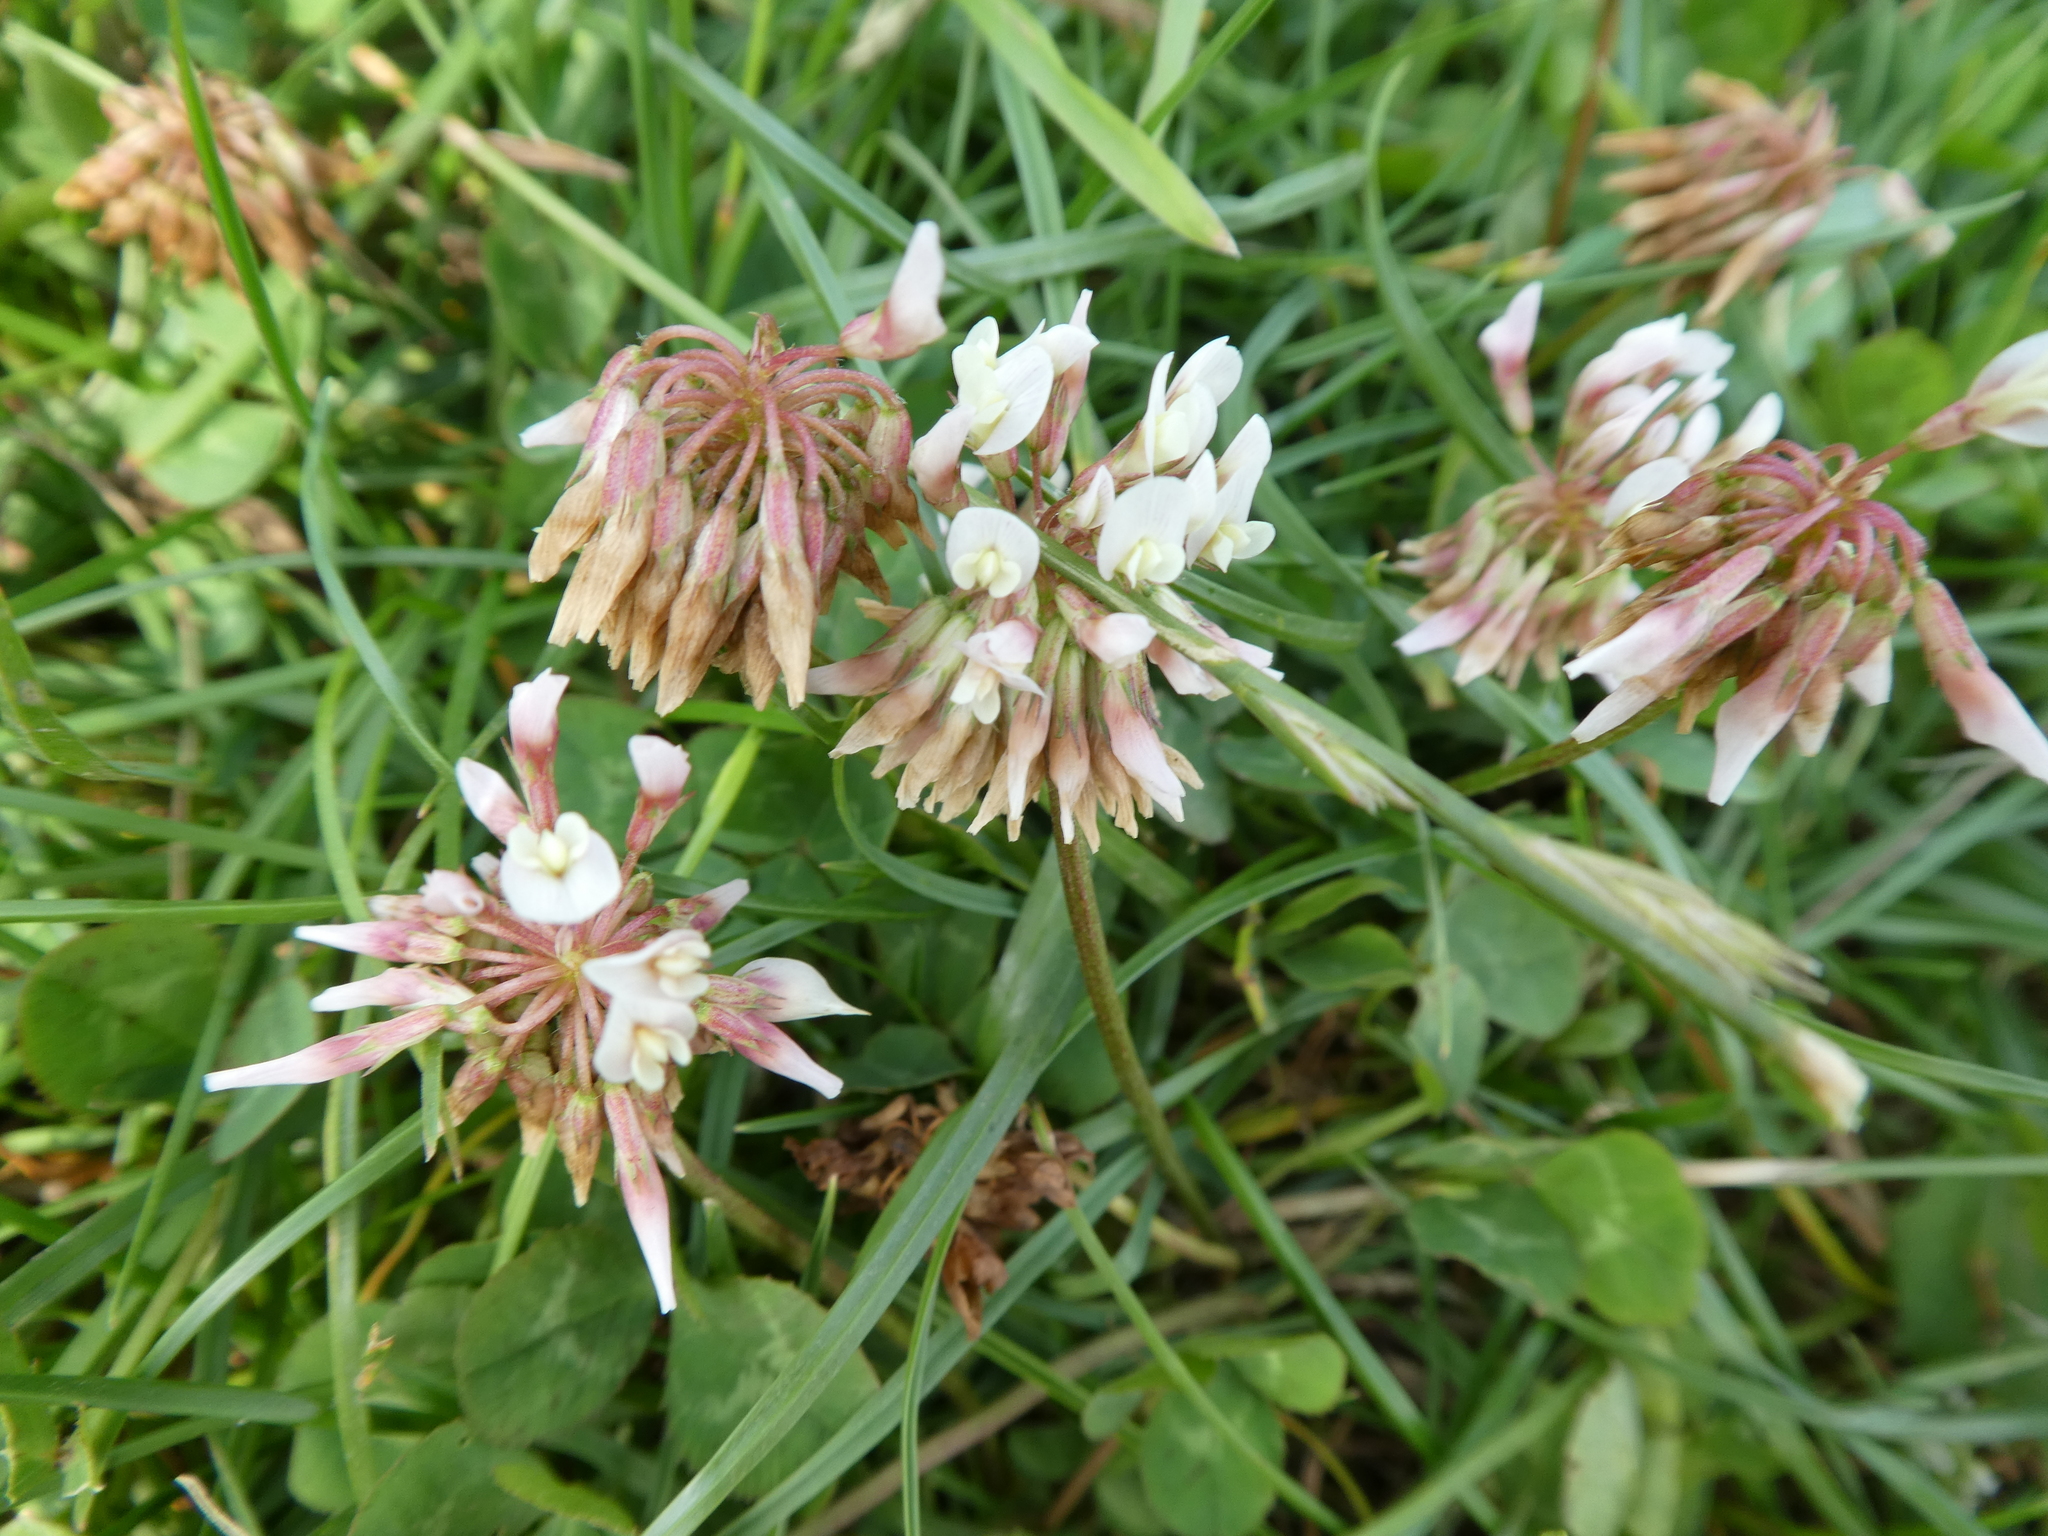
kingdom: Plantae
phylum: Tracheophyta
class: Magnoliopsida
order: Fabales
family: Fabaceae
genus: Trifolium
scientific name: Trifolium repens
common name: White clover
